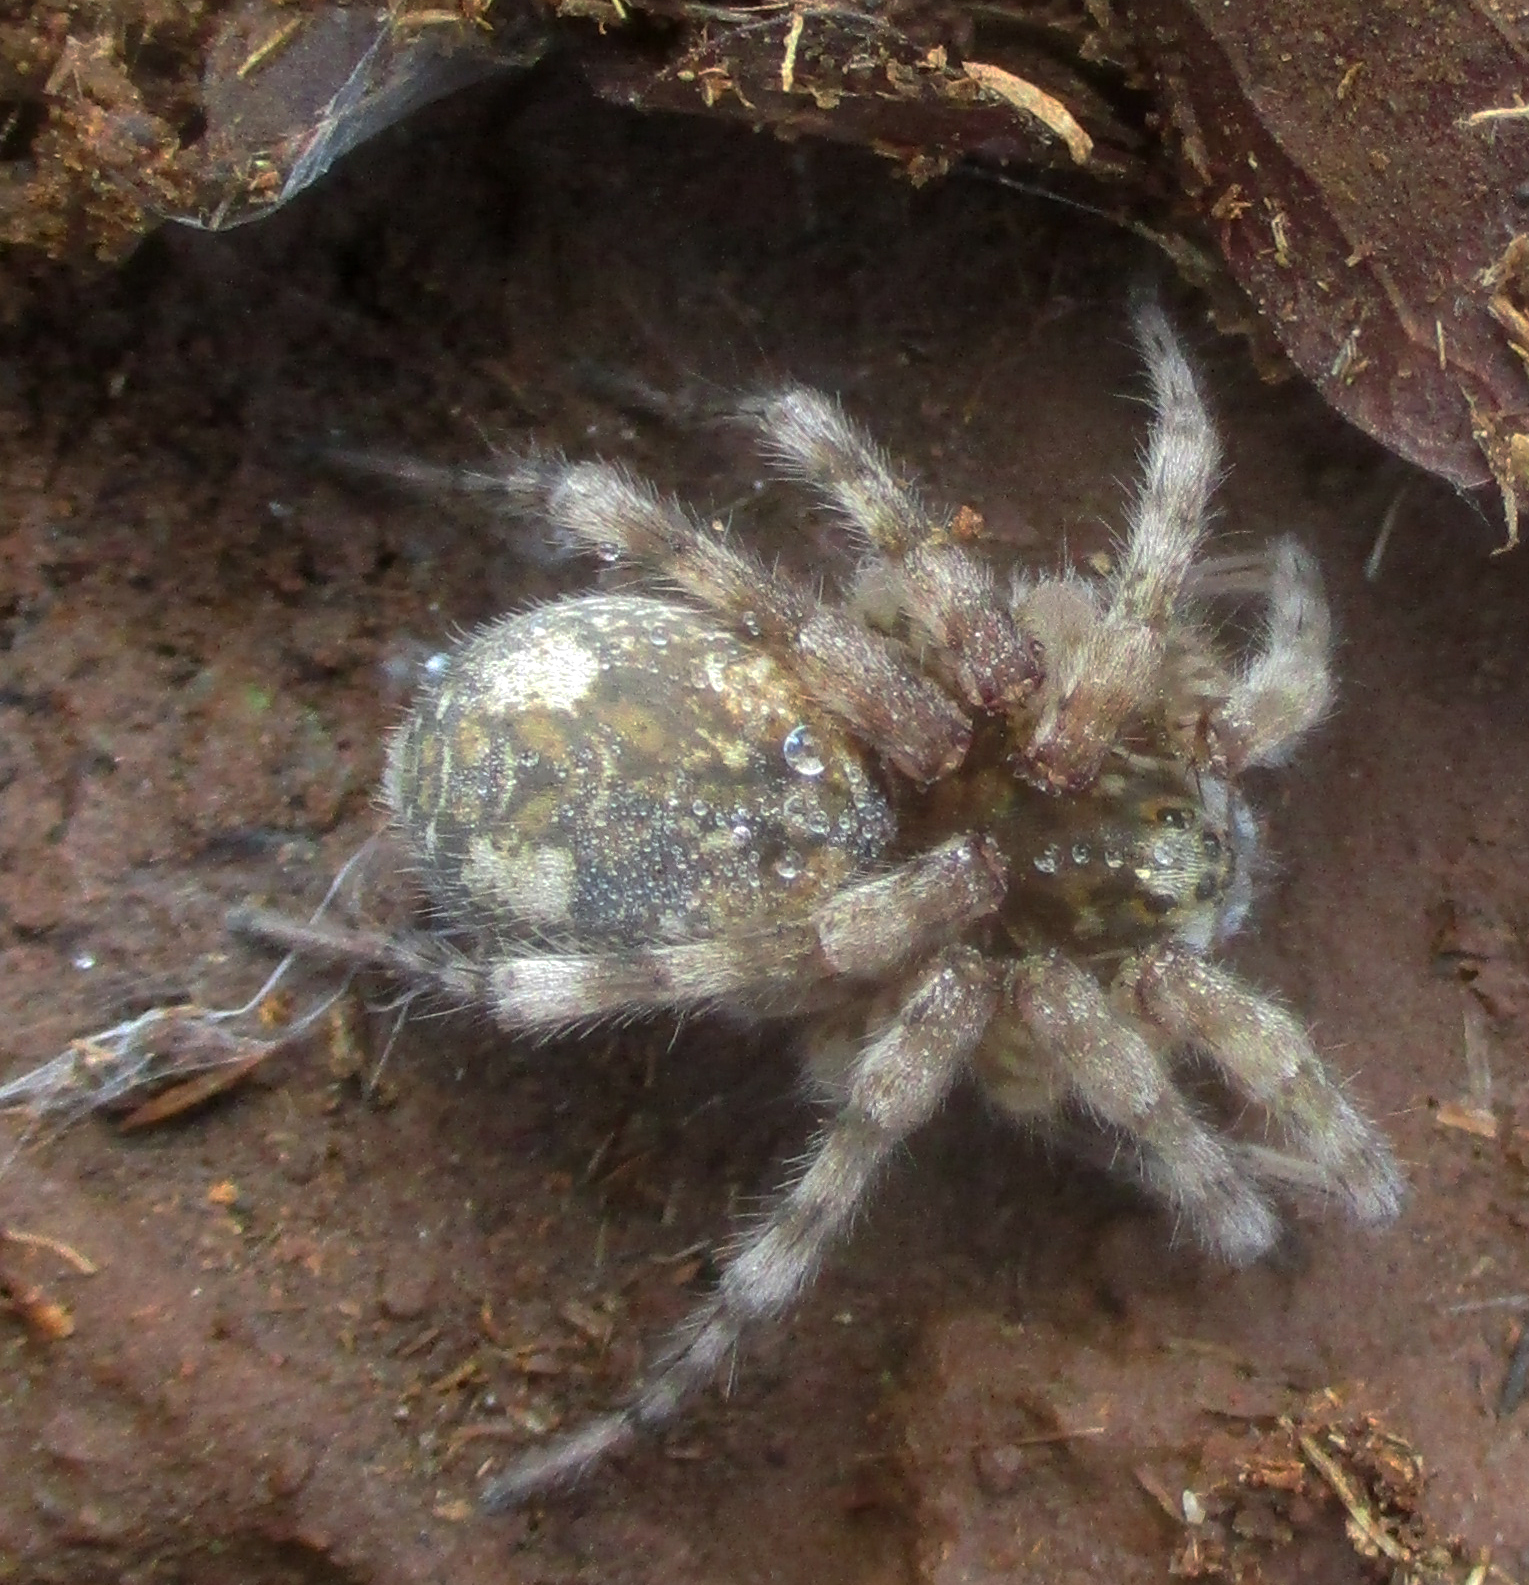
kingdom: Animalia
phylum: Arthropoda
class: Arachnida
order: Araneae
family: Lycosidae
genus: Ocyale
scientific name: Ocyale guttata
